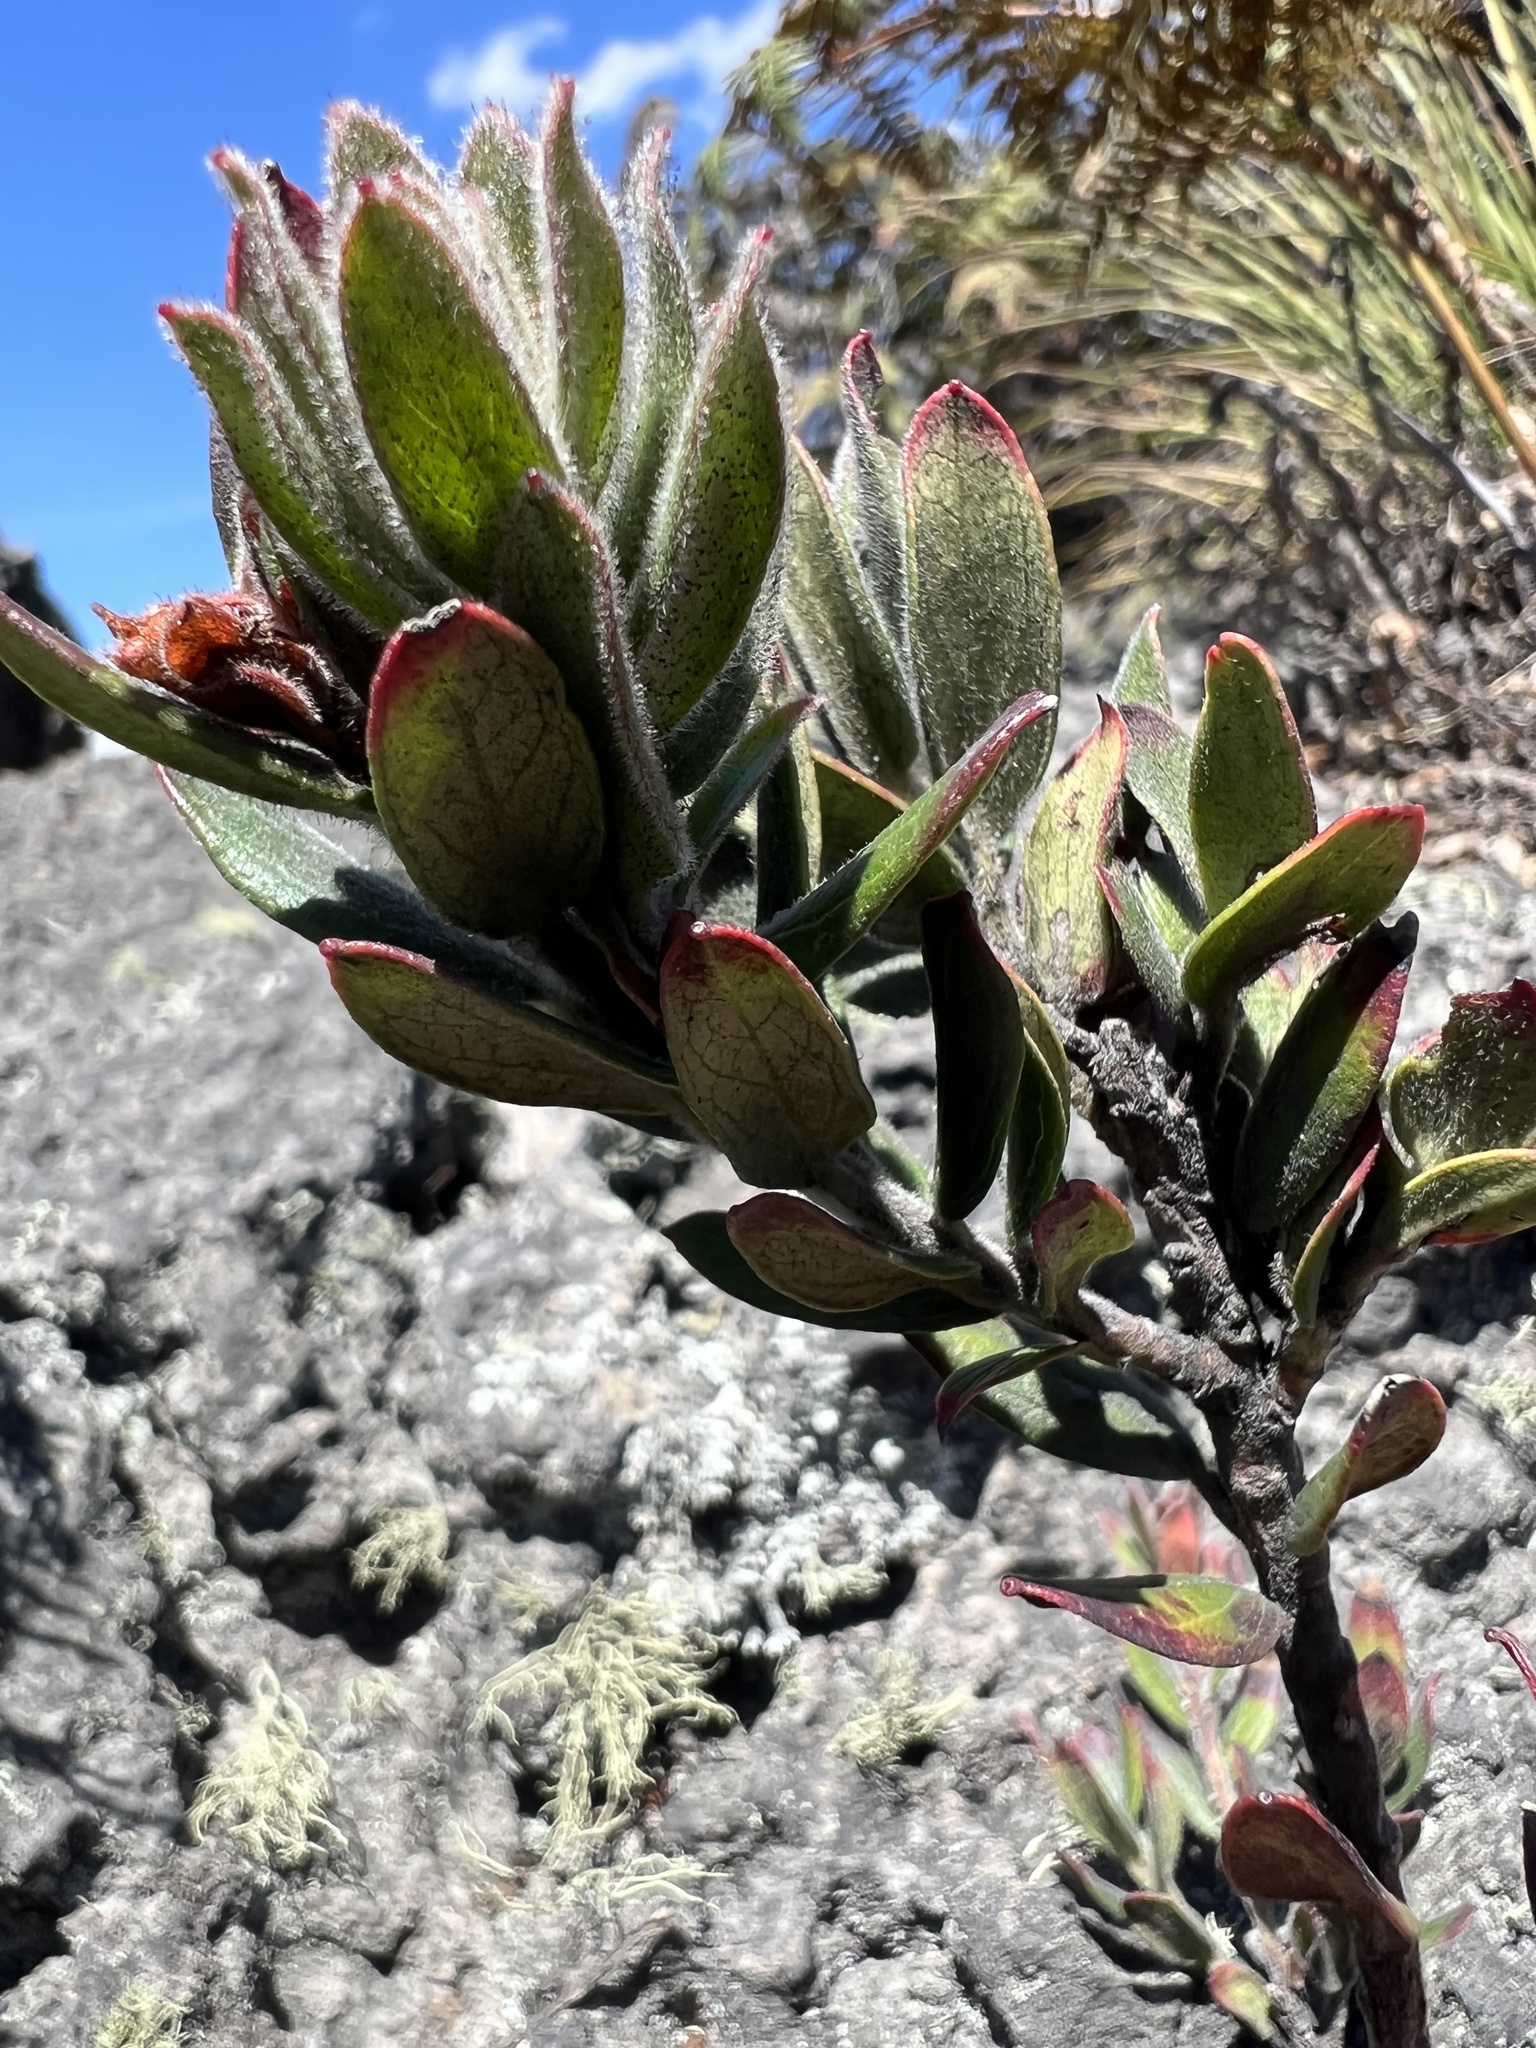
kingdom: Plantae
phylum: Tracheophyta
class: Magnoliopsida
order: Ericales
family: Ericaceae
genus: Gaylussacia
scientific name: Gaylussacia buxifolia
